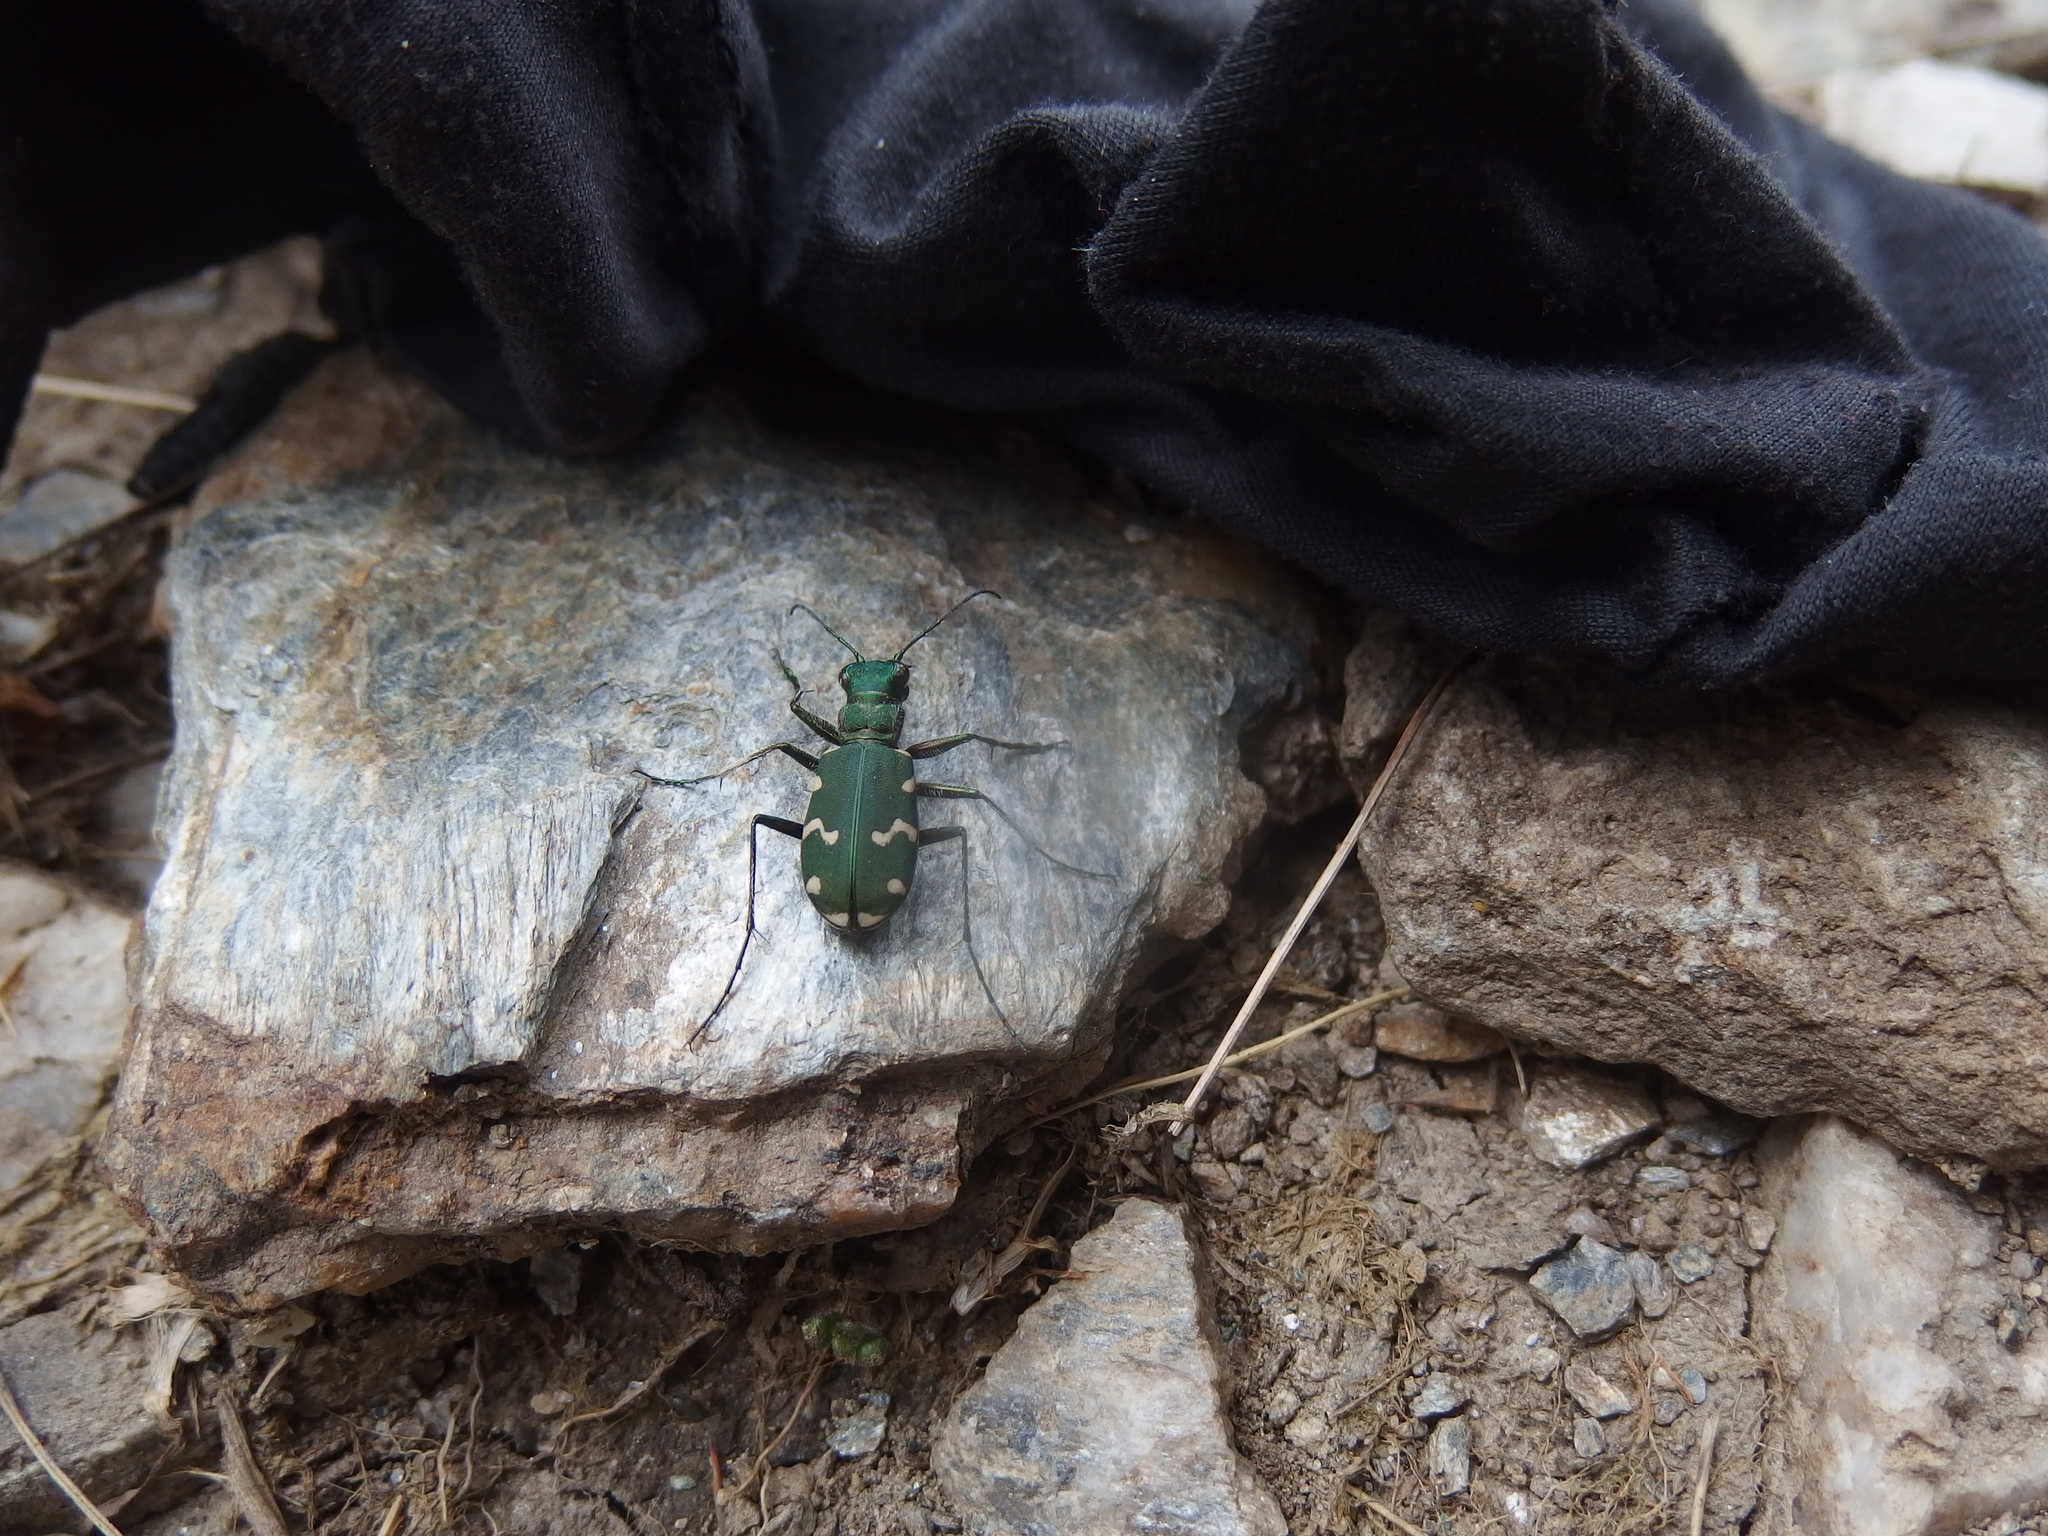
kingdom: Animalia
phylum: Arthropoda
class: Insecta
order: Coleoptera
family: Carabidae
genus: Cicindela
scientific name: Cicindela gallica
